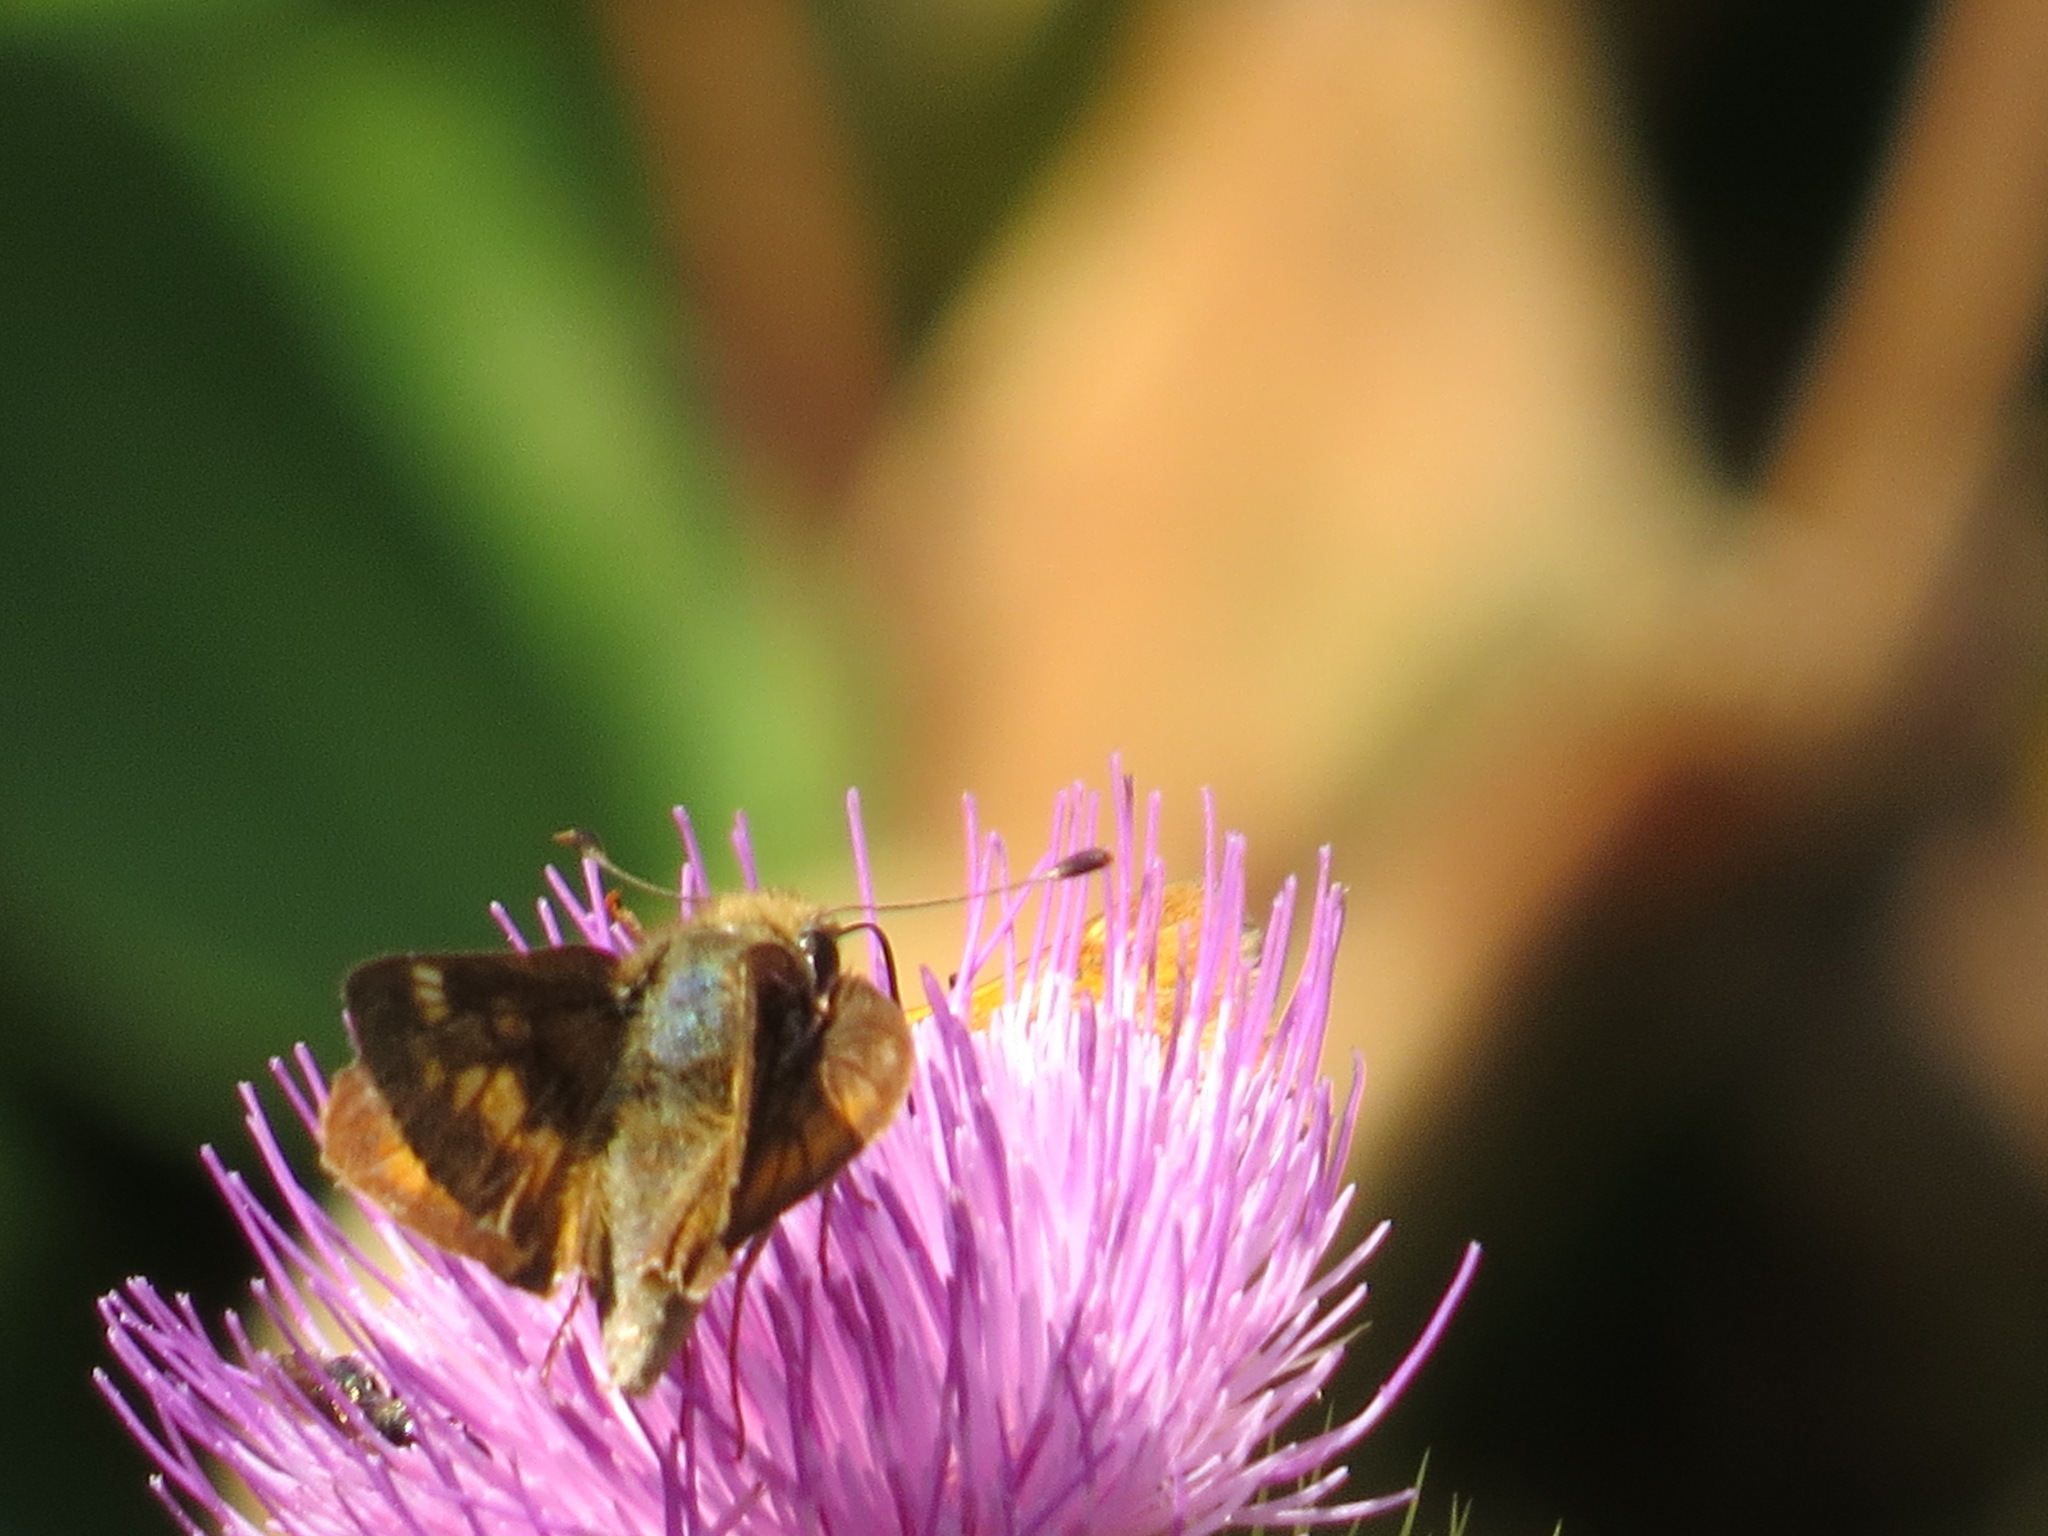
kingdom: Animalia
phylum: Arthropoda
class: Insecta
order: Lepidoptera
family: Hesperiidae
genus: Ochlodes
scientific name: Ochlodes sylvanoides
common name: Woodland skipper
